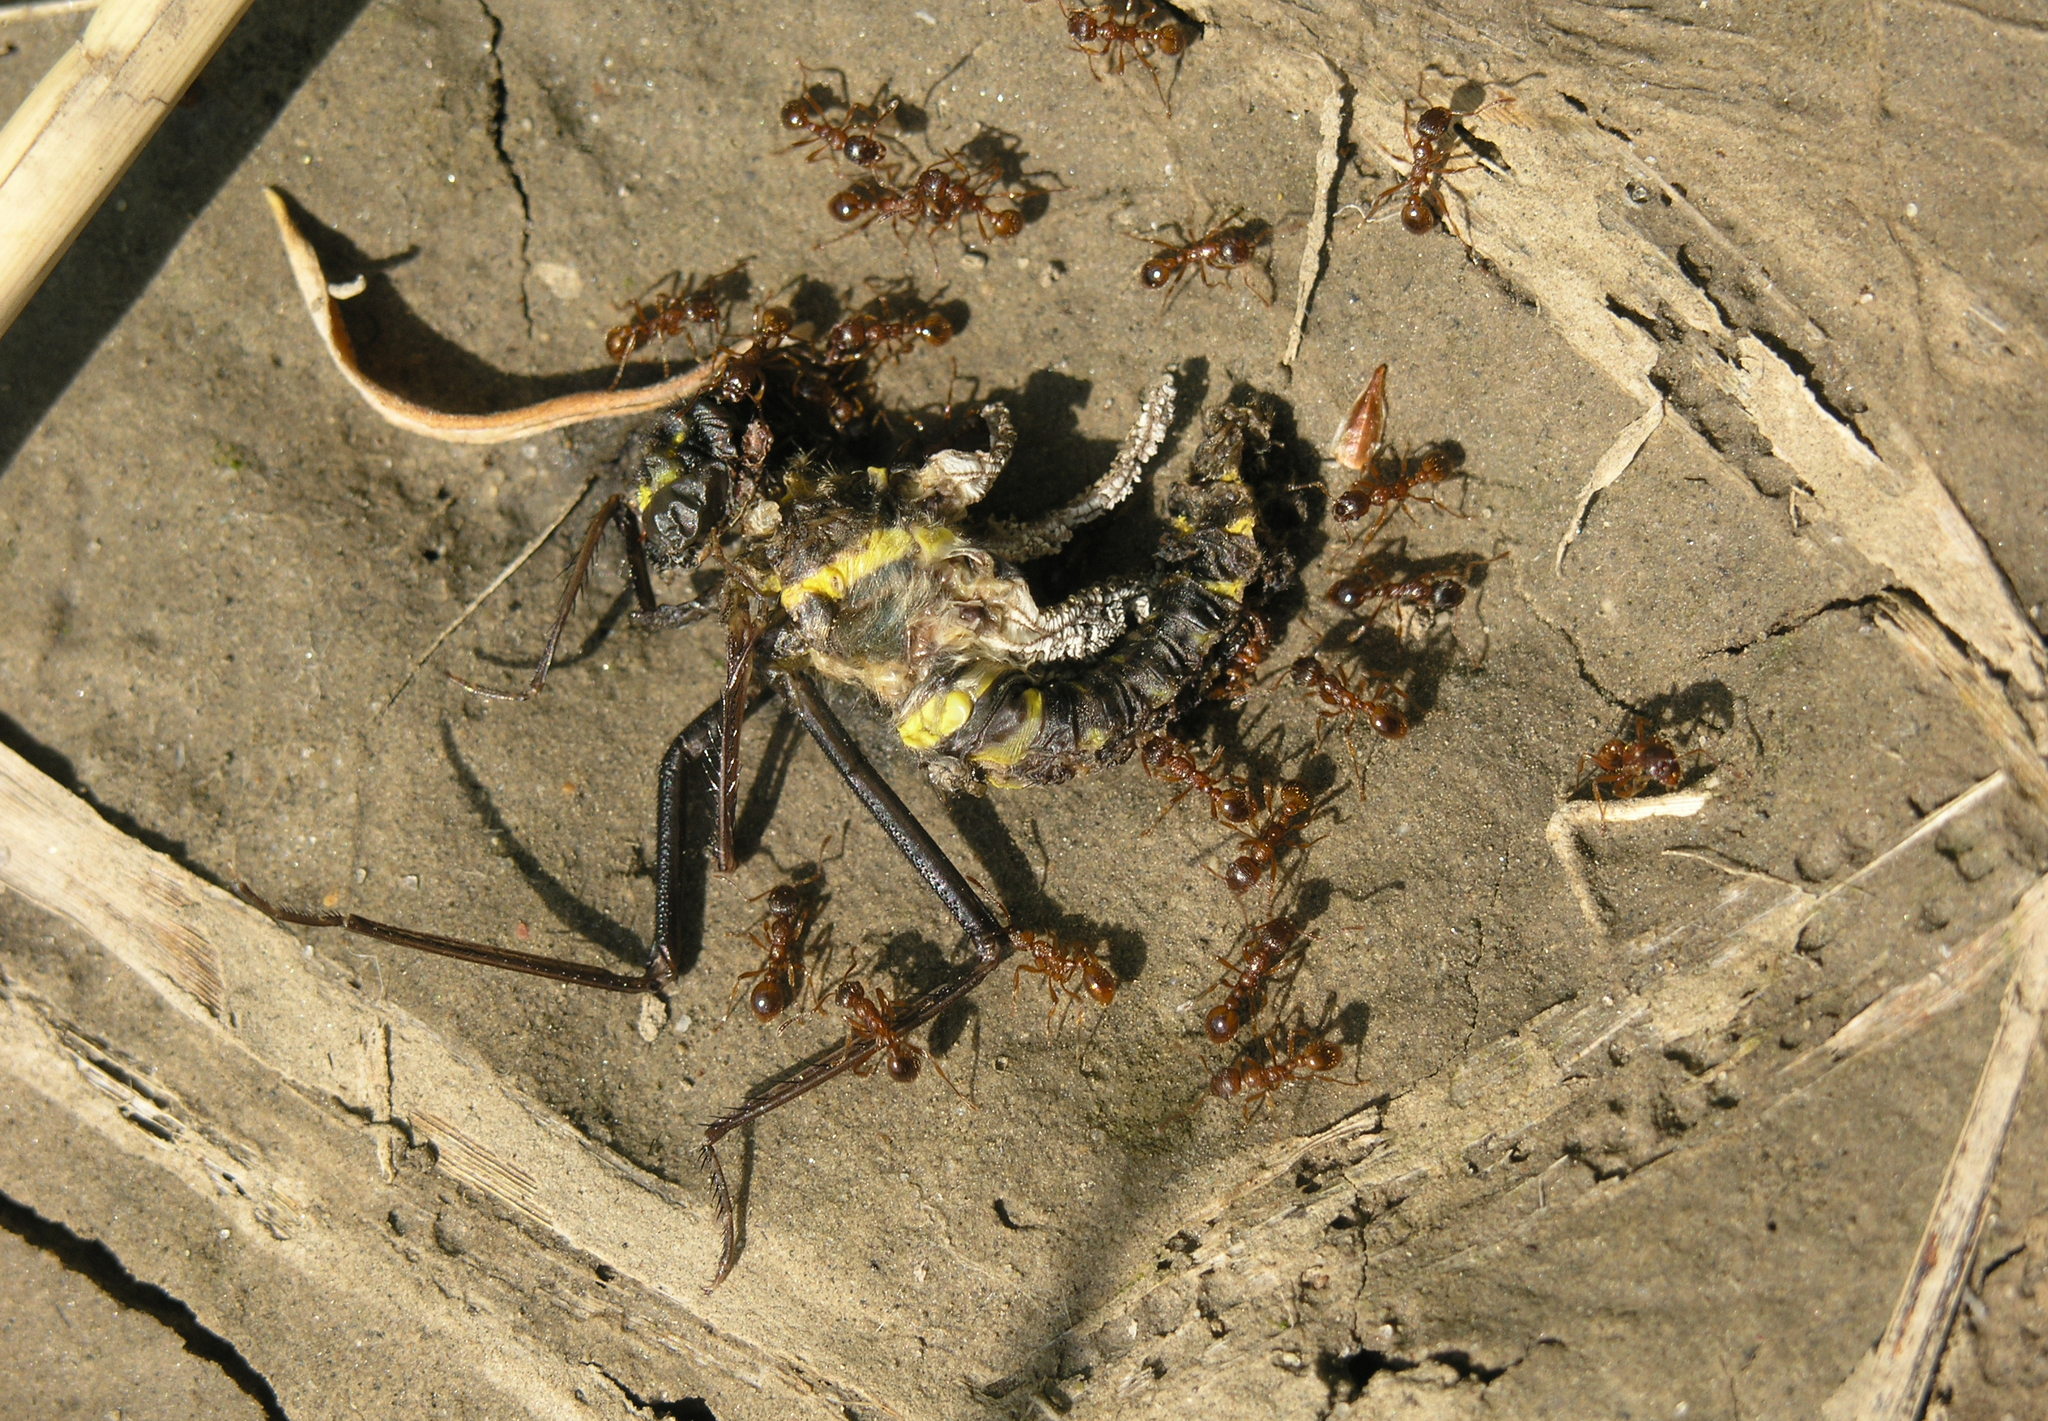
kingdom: Animalia
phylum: Arthropoda
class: Insecta
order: Odonata
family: Macromiidae
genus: Macromia
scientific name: Macromia amphigena
